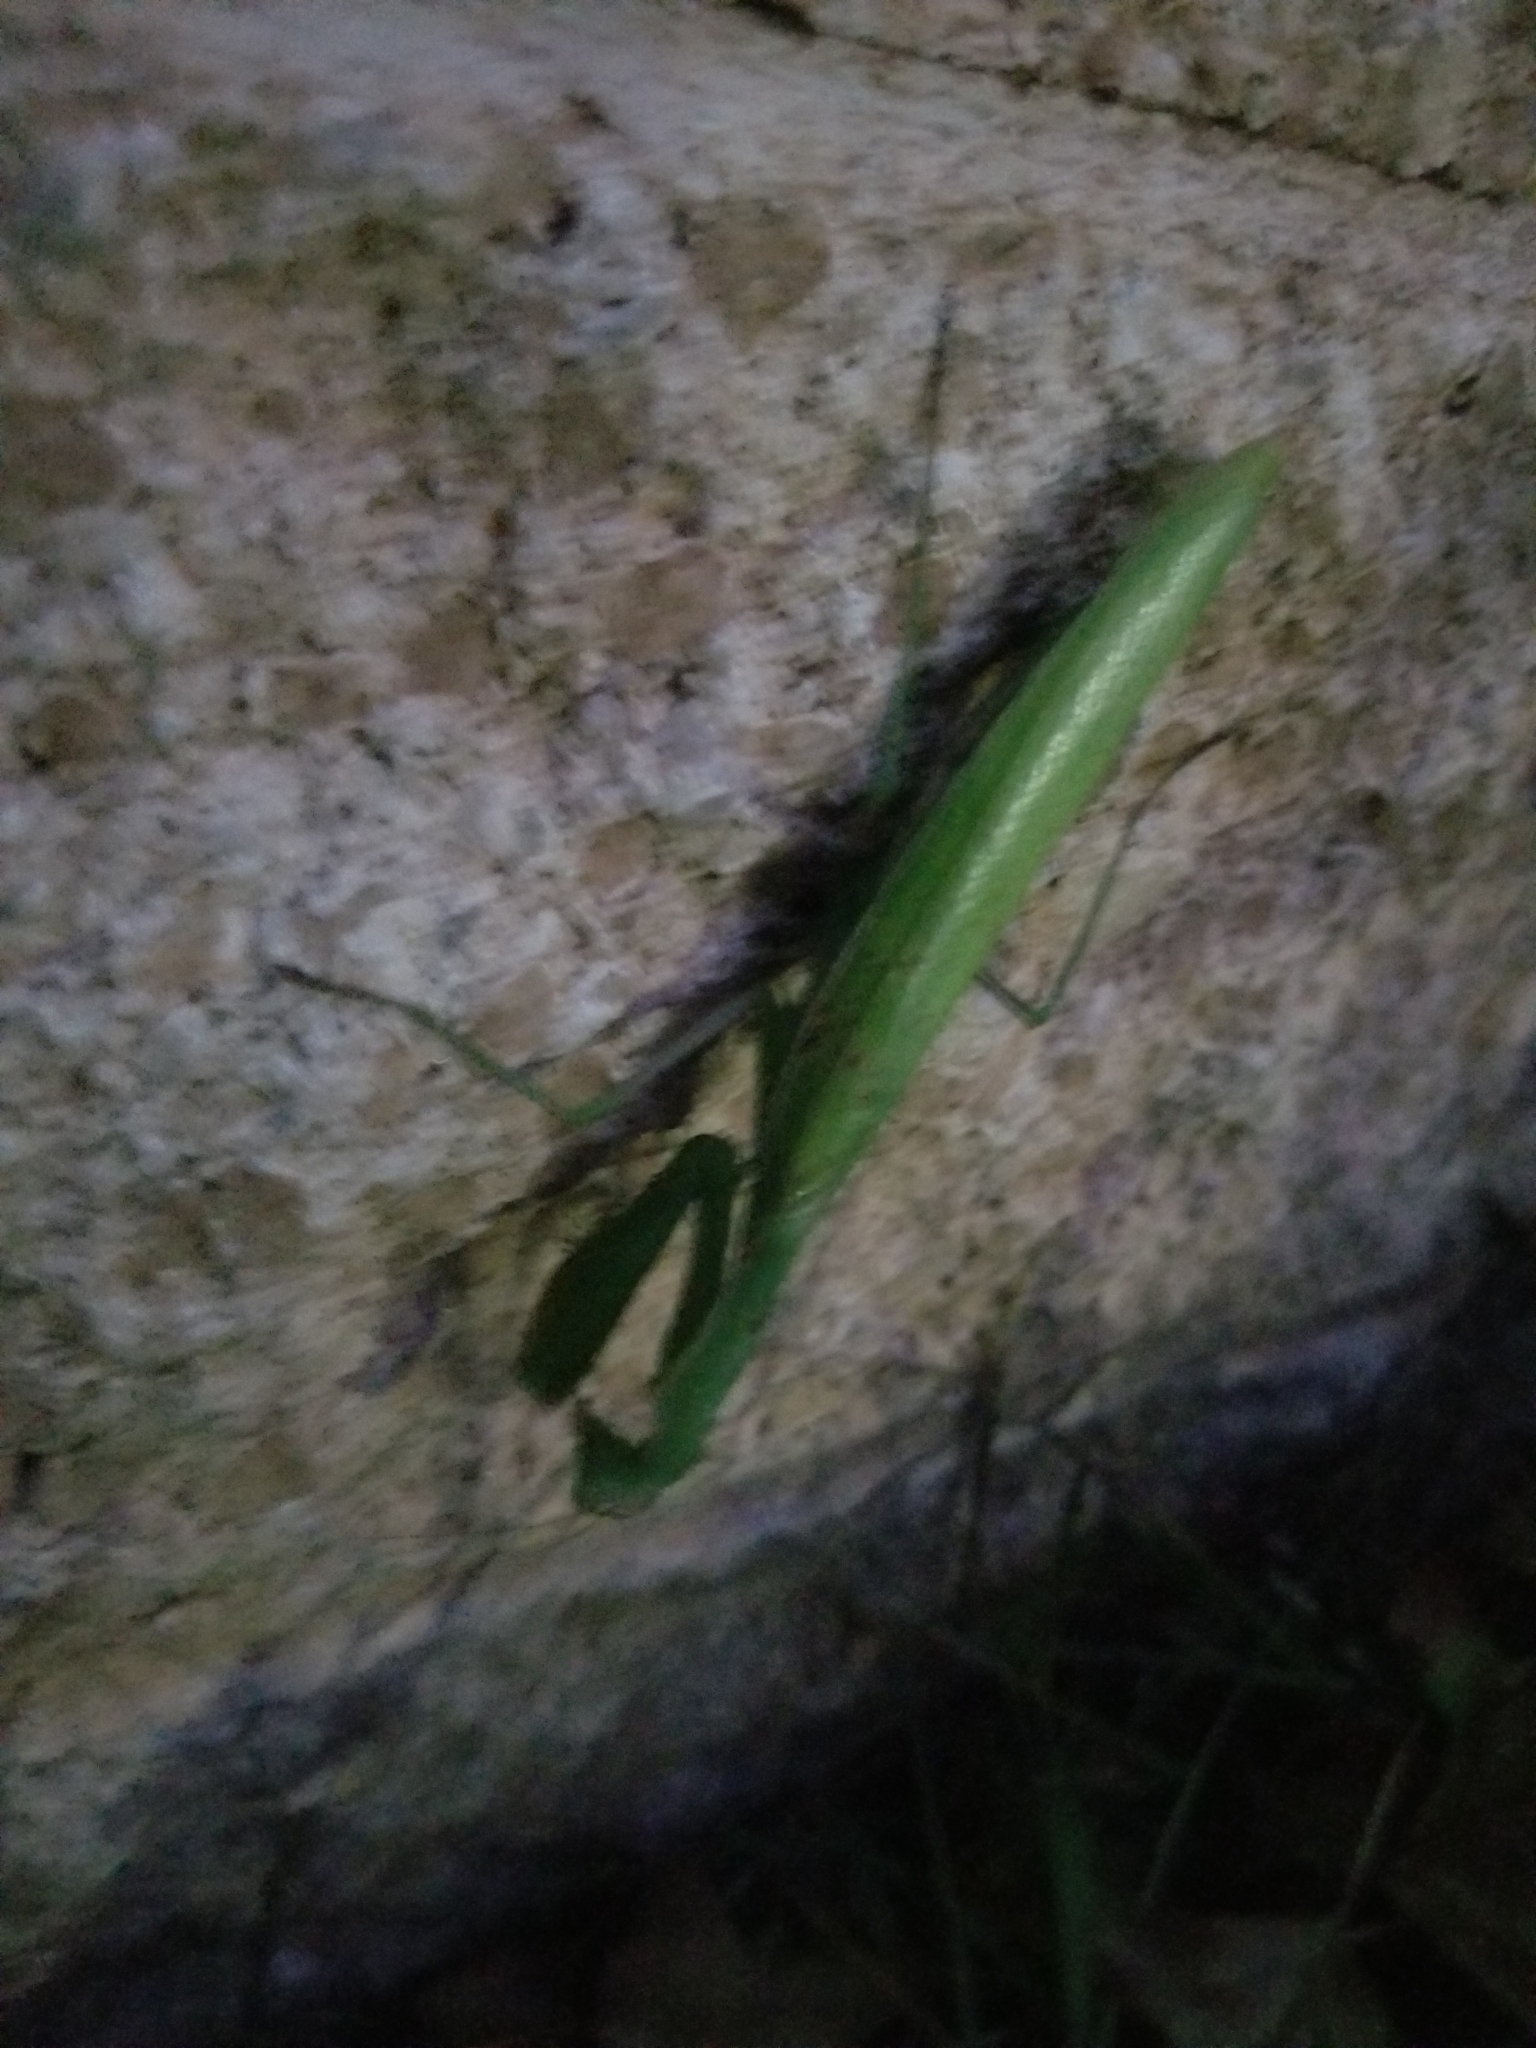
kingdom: Animalia
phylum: Arthropoda
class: Insecta
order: Mantodea
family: Mantidae
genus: Mantis
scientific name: Mantis religiosa
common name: Praying mantis
